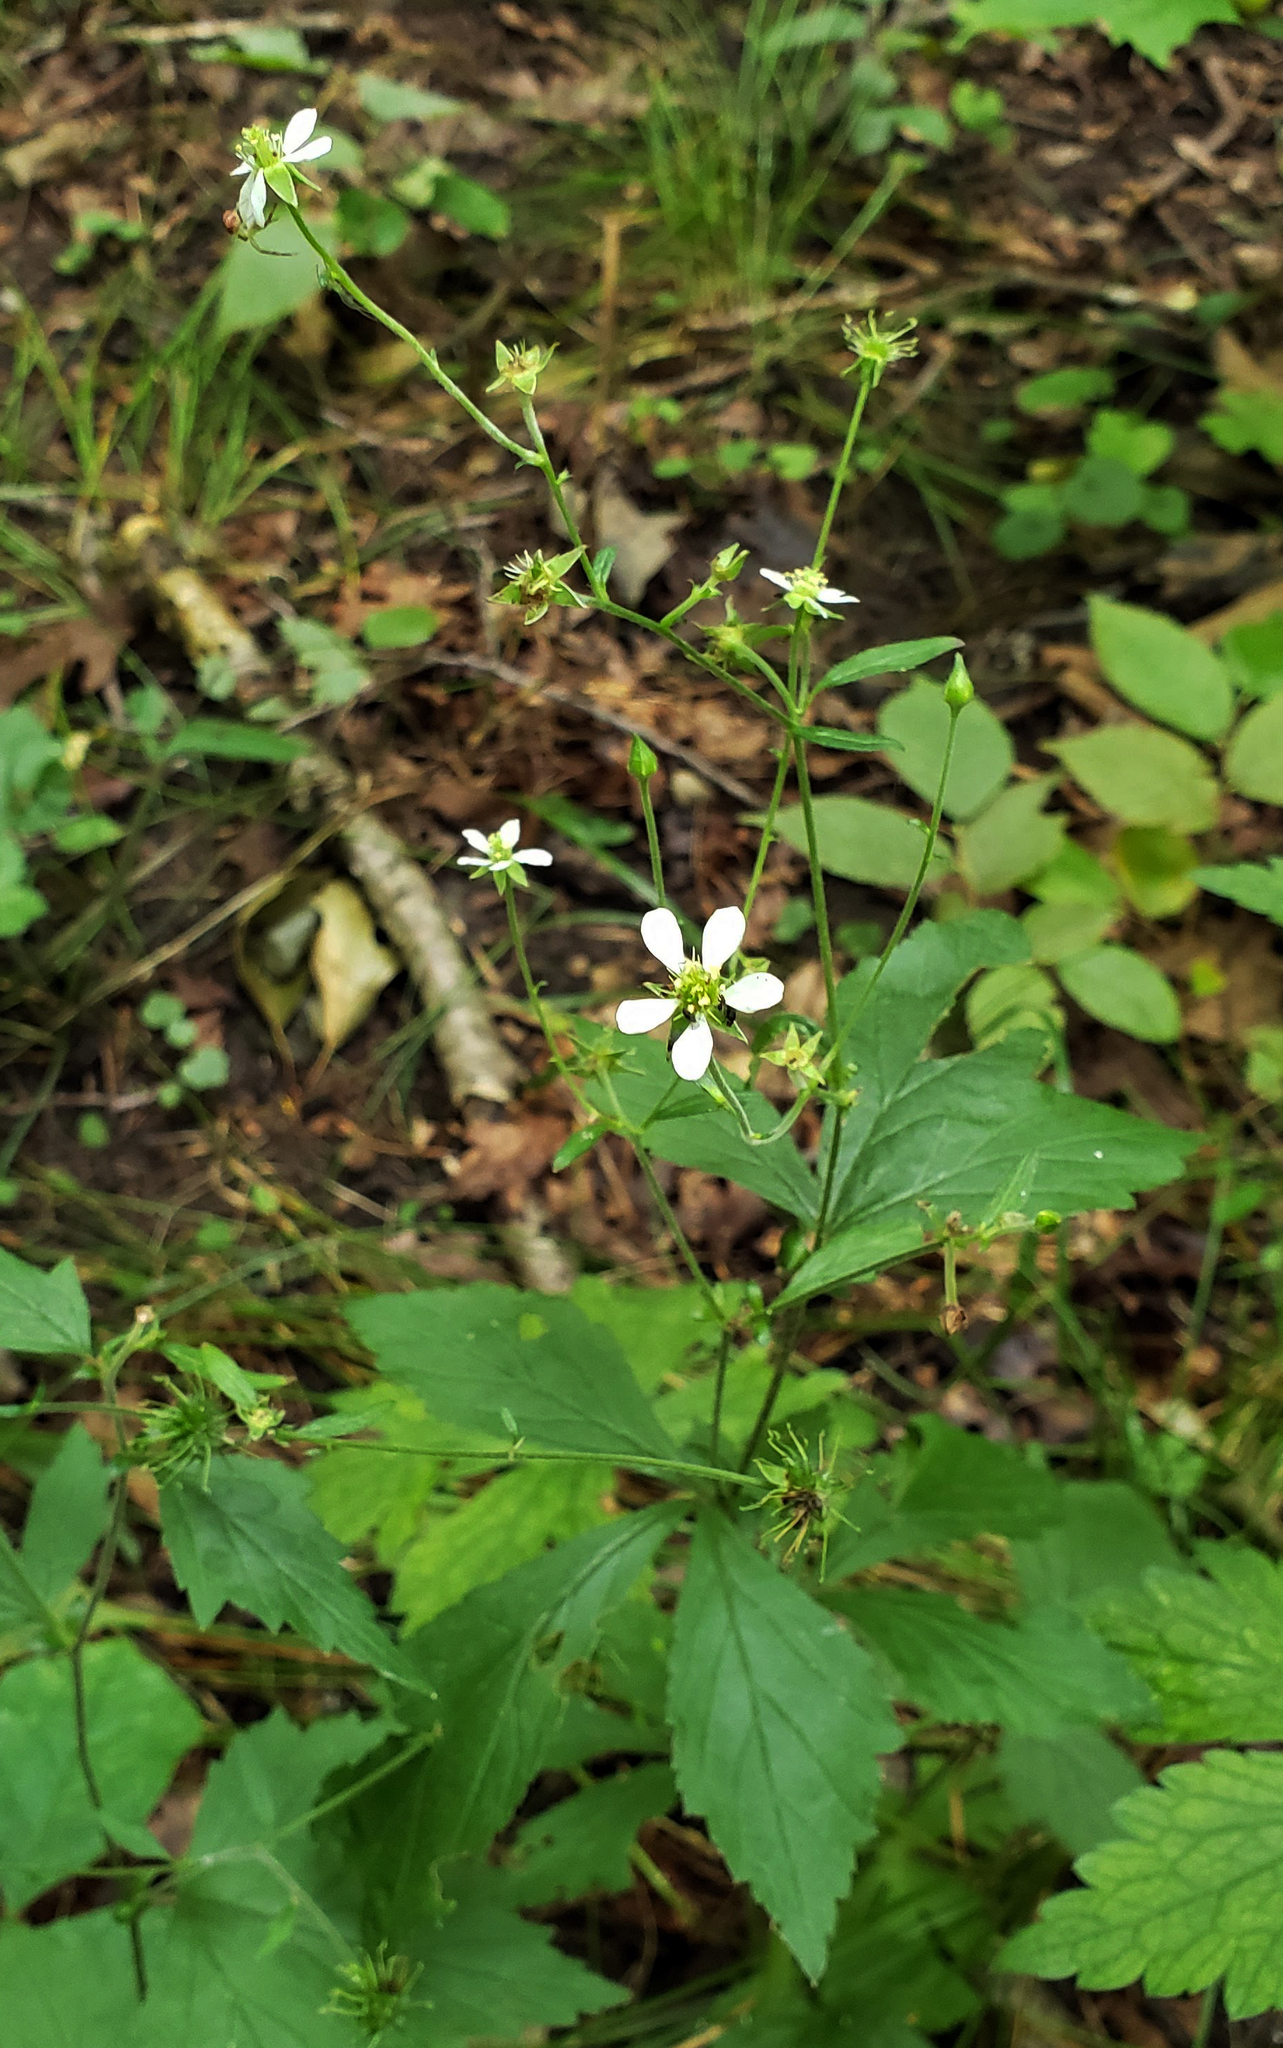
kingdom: Plantae
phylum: Tracheophyta
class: Magnoliopsida
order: Rosales
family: Rosaceae
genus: Geum
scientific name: Geum canadense
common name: White avens
